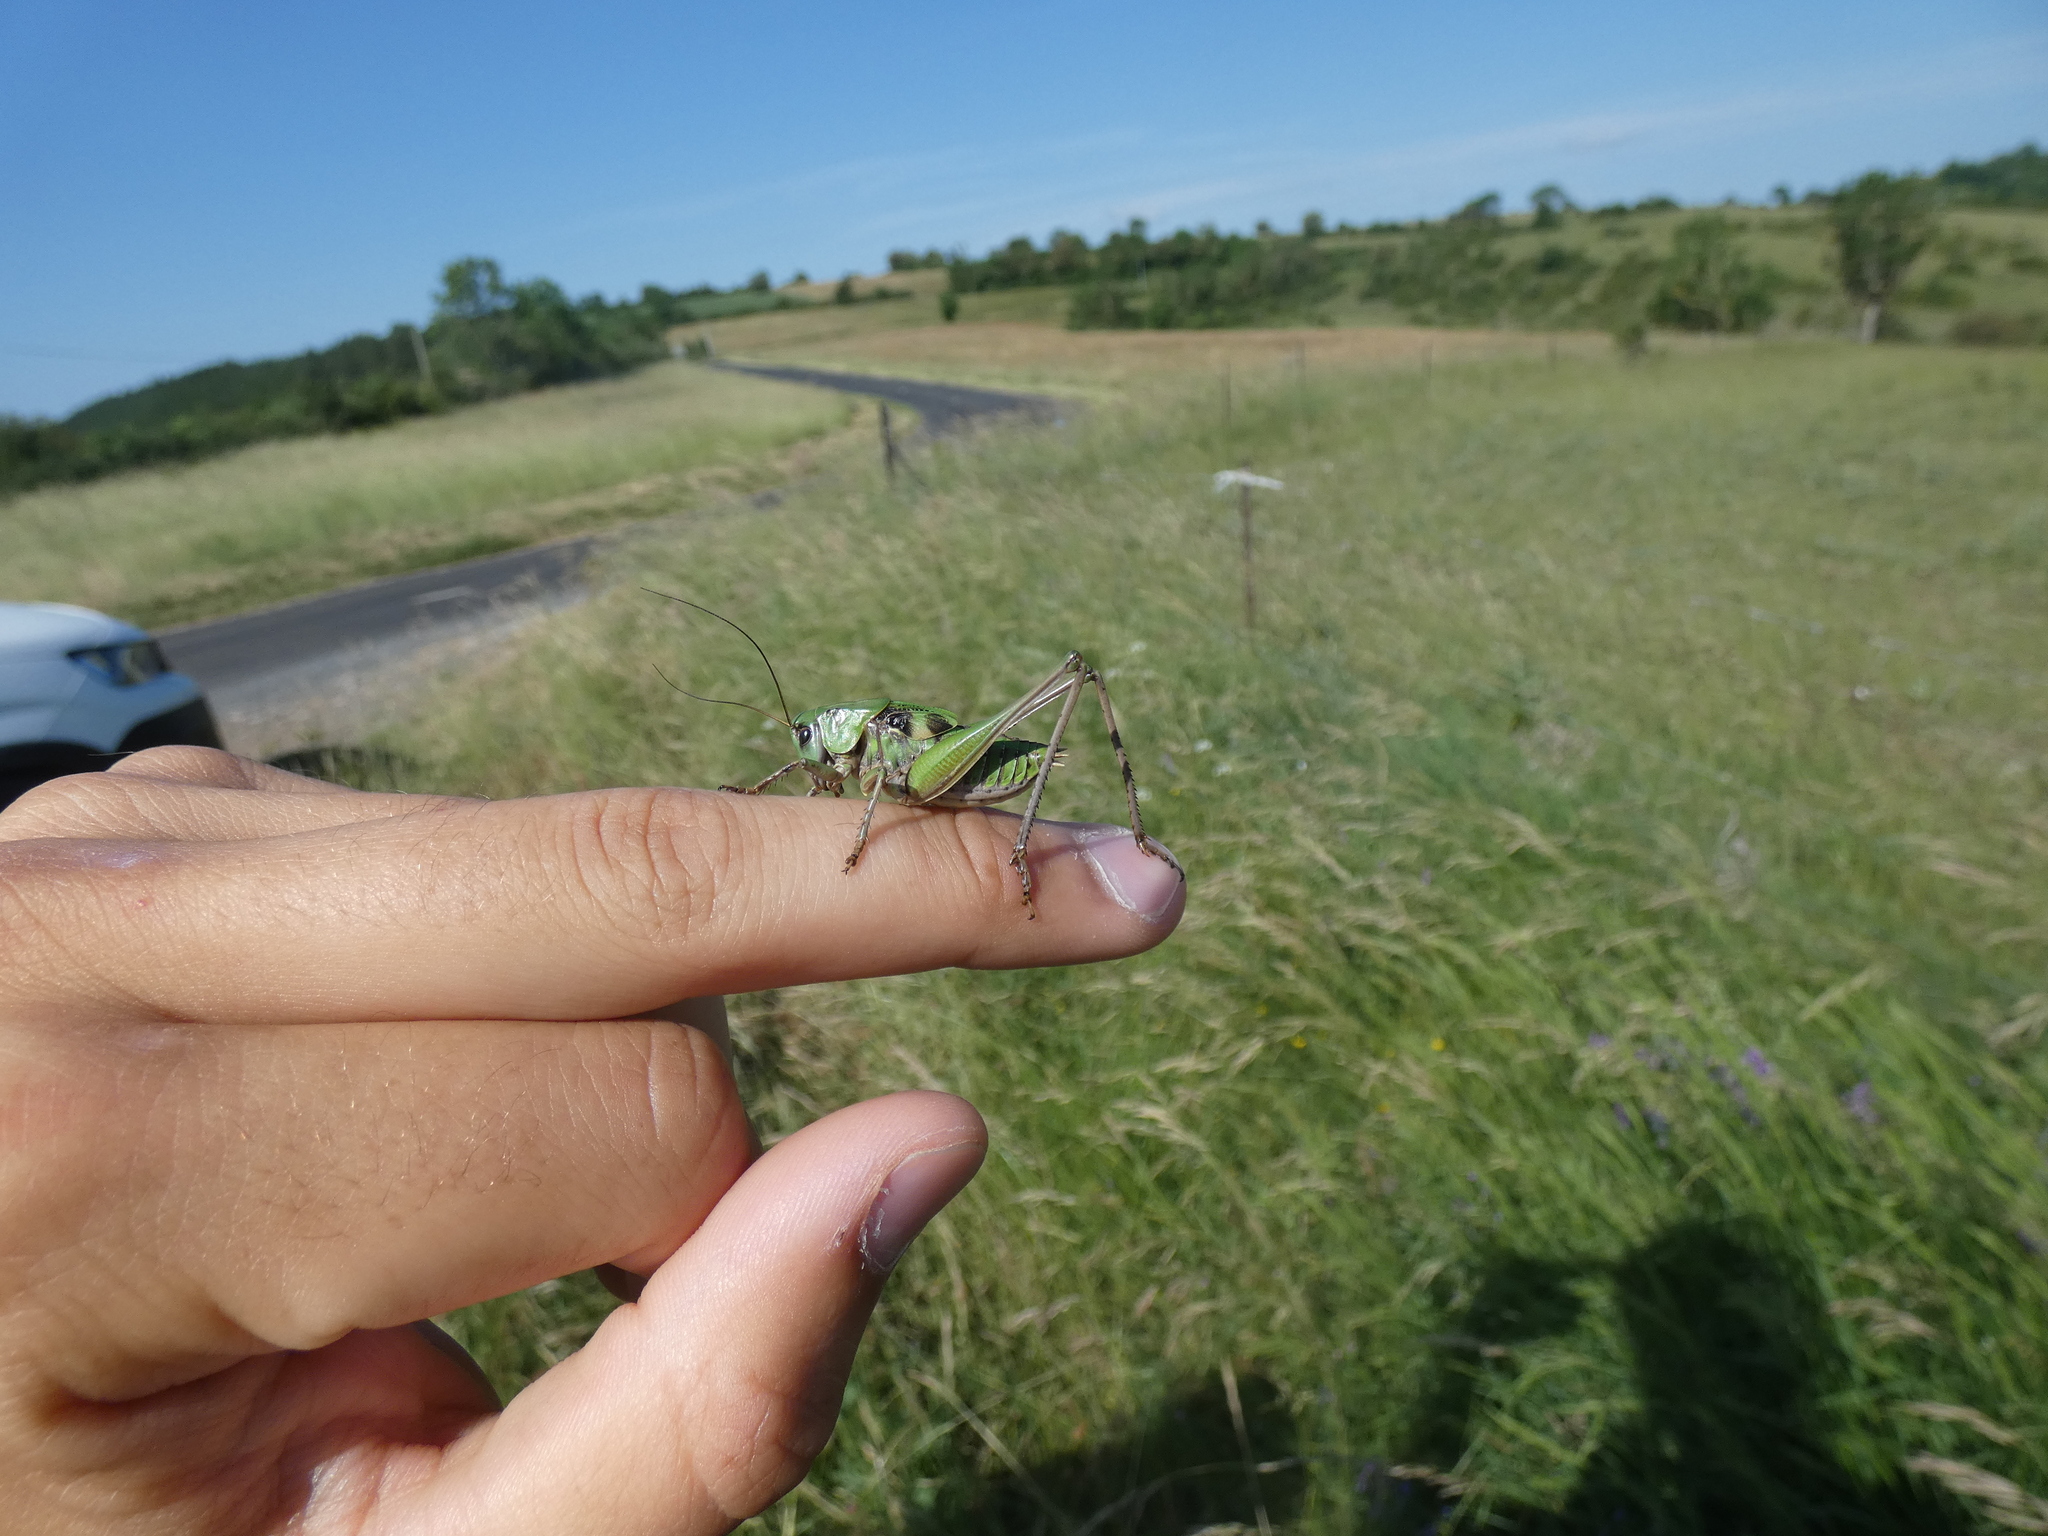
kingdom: Animalia
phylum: Arthropoda
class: Insecta
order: Orthoptera
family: Tettigoniidae
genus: Decticus
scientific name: Decticus verrucivorus
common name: Wart-biter
